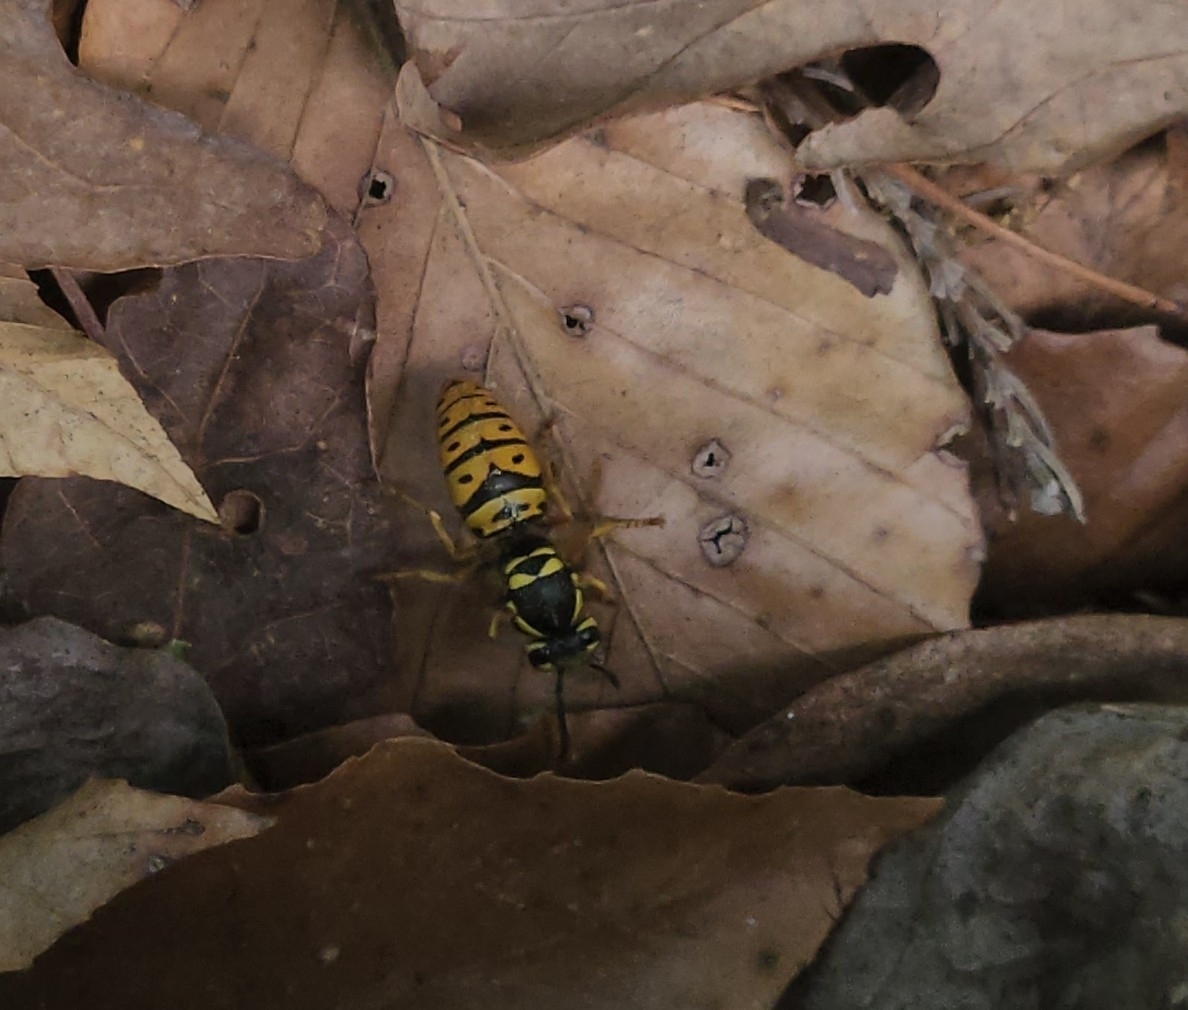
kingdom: Animalia
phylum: Arthropoda
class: Insecta
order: Hymenoptera
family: Vespidae
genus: Vespula
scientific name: Vespula maculifrons
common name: Eastern yellowjacket
